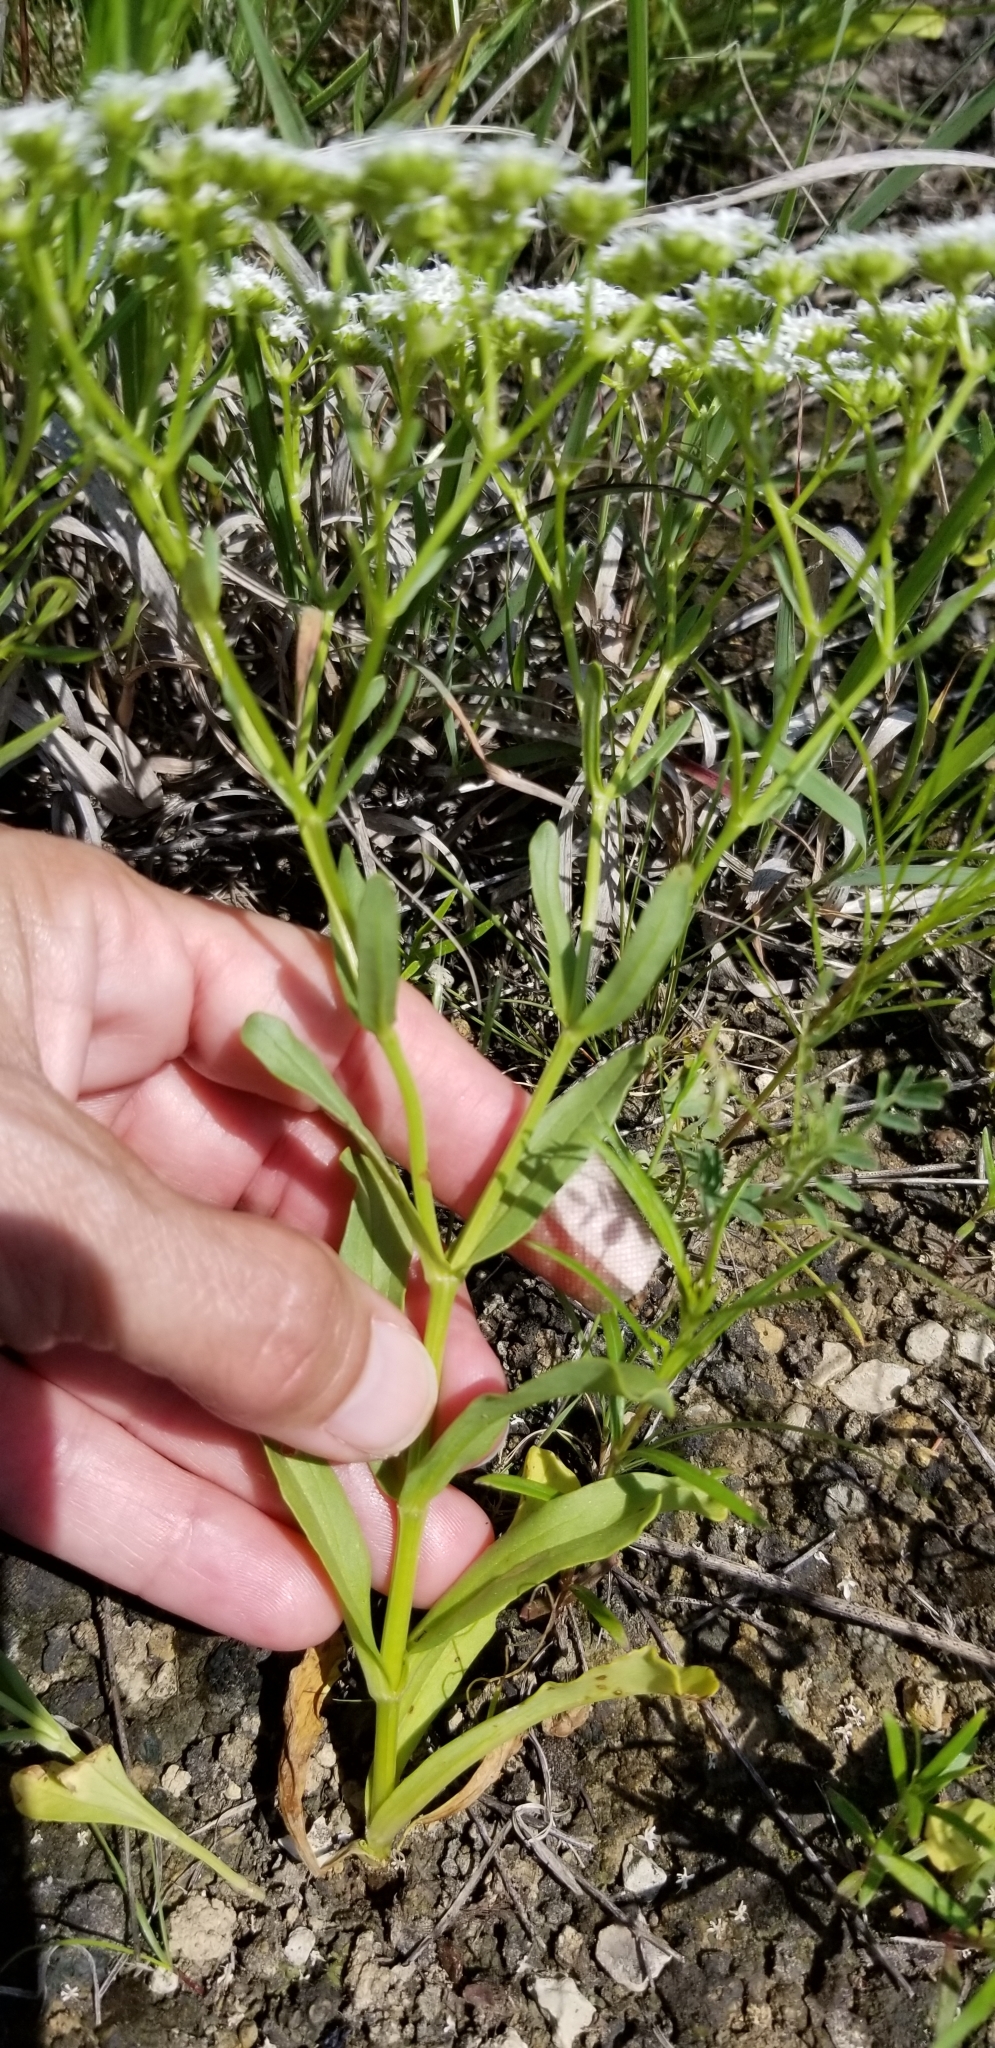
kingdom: Plantae
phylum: Tracheophyta
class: Magnoliopsida
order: Dipsacales
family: Caprifoliaceae
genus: Valerianella
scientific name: Valerianella amarella
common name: Hariy cornsalad
